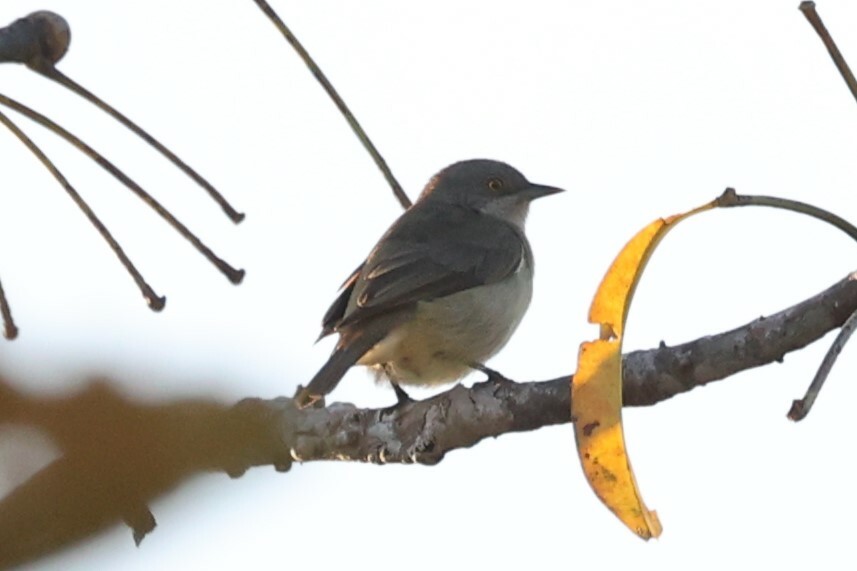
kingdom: Animalia
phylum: Chordata
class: Aves
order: Passeriformes
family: Thraupidae
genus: Dacnis
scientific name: Dacnis lineata
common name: Black-faced dacnis
